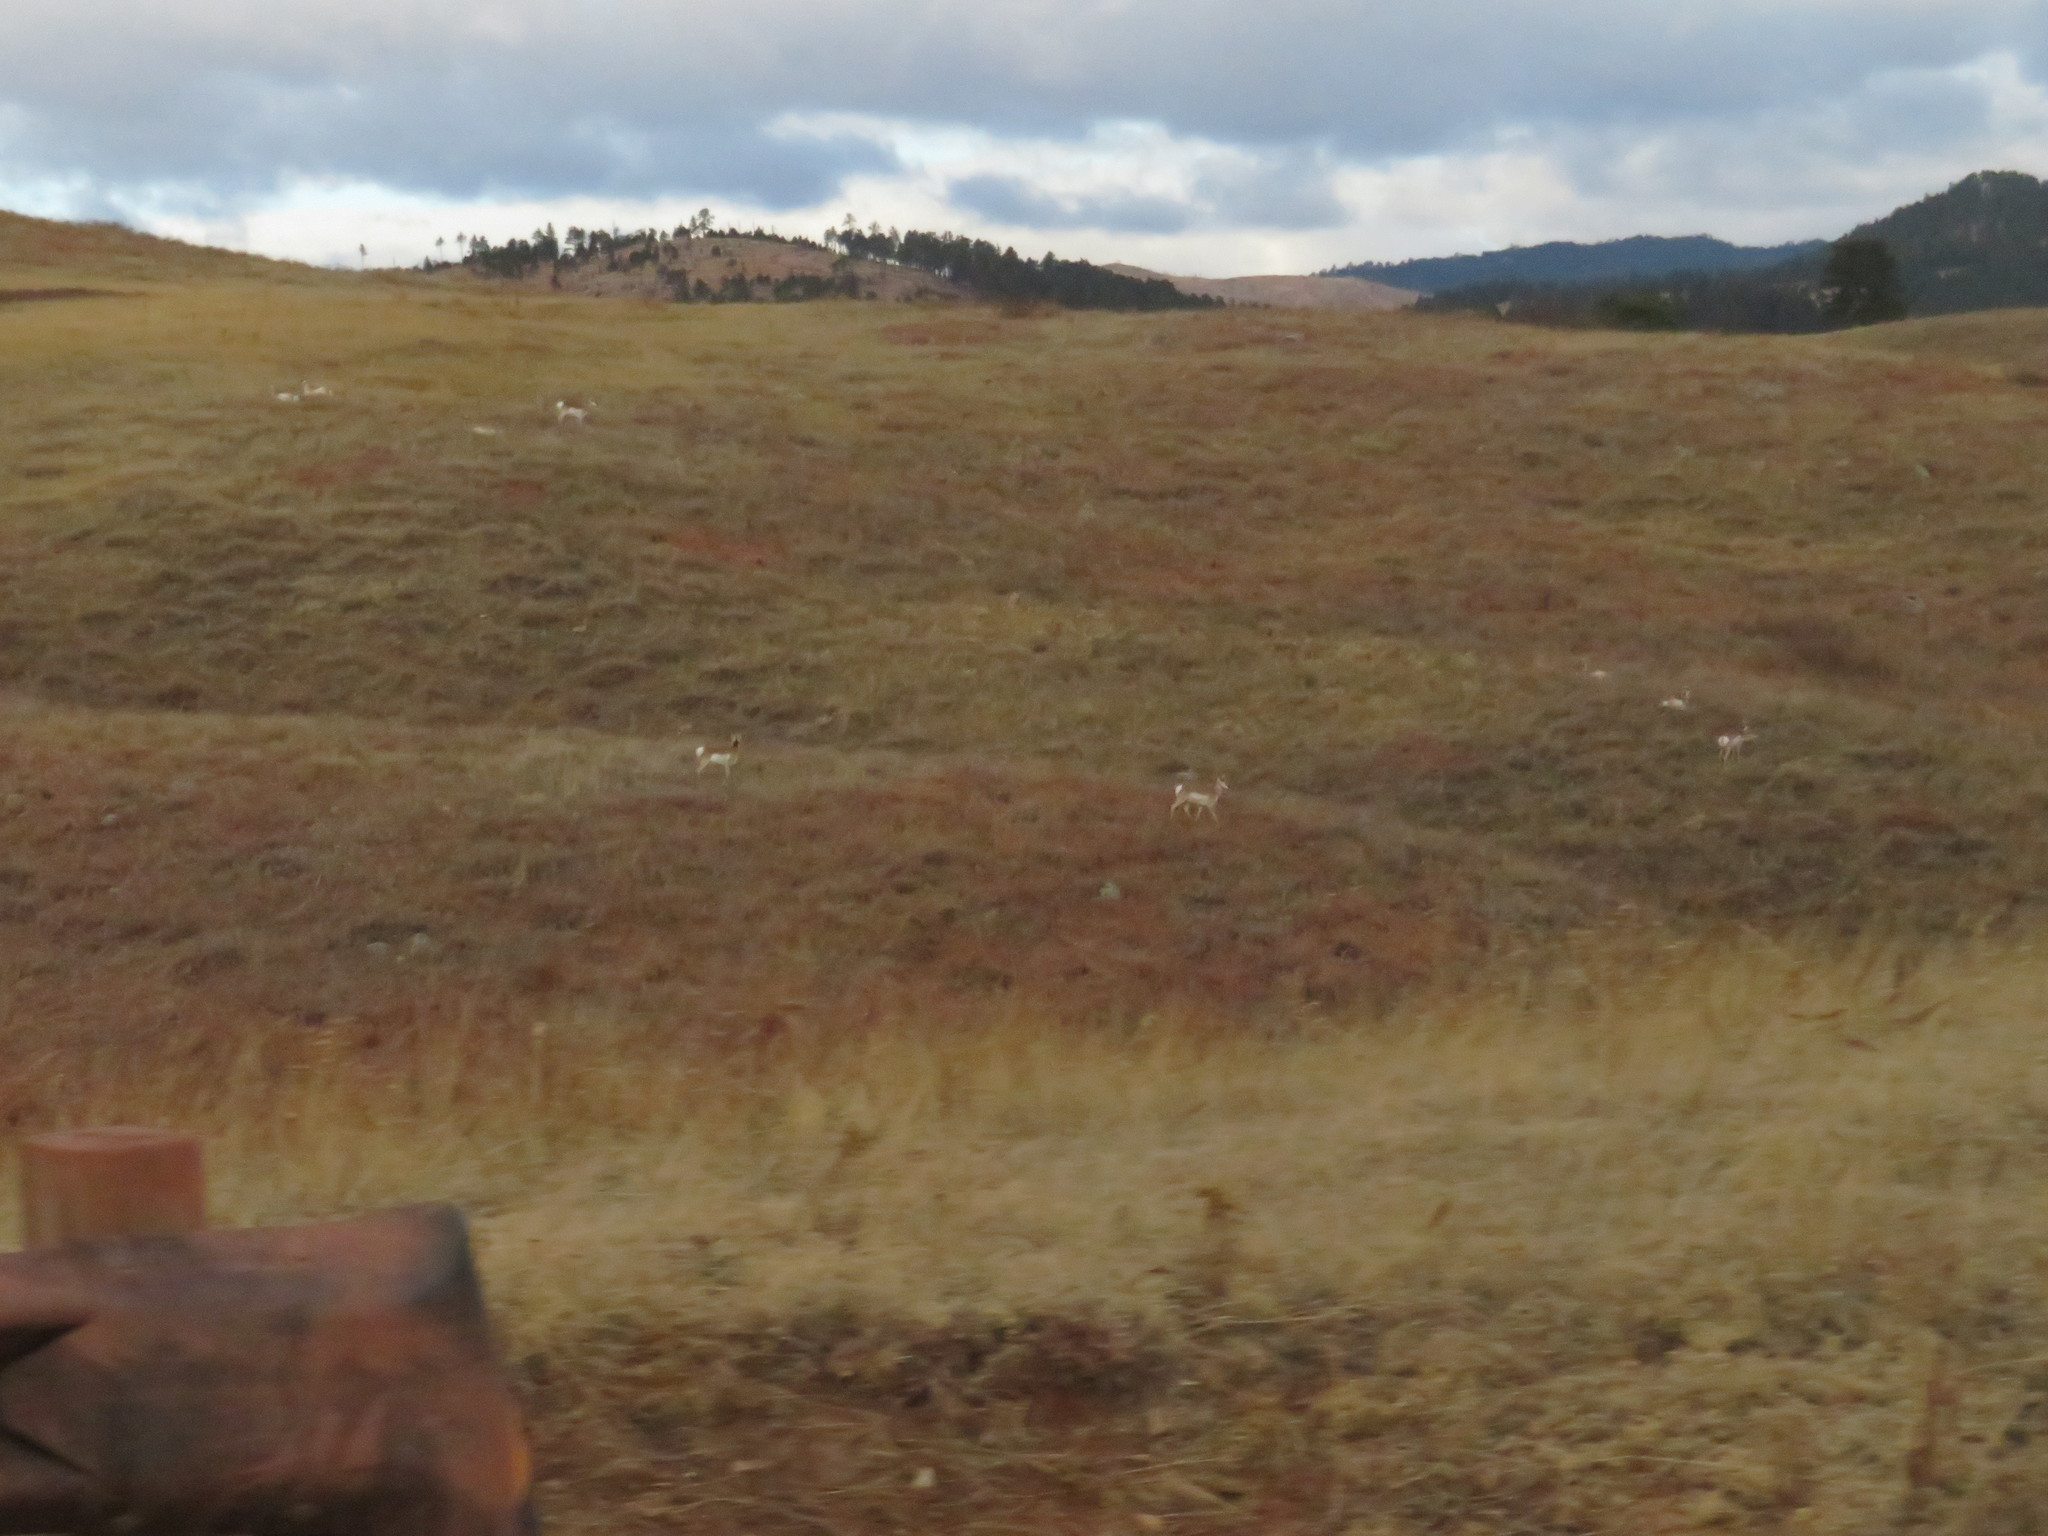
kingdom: Animalia
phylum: Chordata
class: Mammalia
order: Artiodactyla
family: Antilocapridae
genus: Antilocapra
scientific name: Antilocapra americana
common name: Pronghorn
